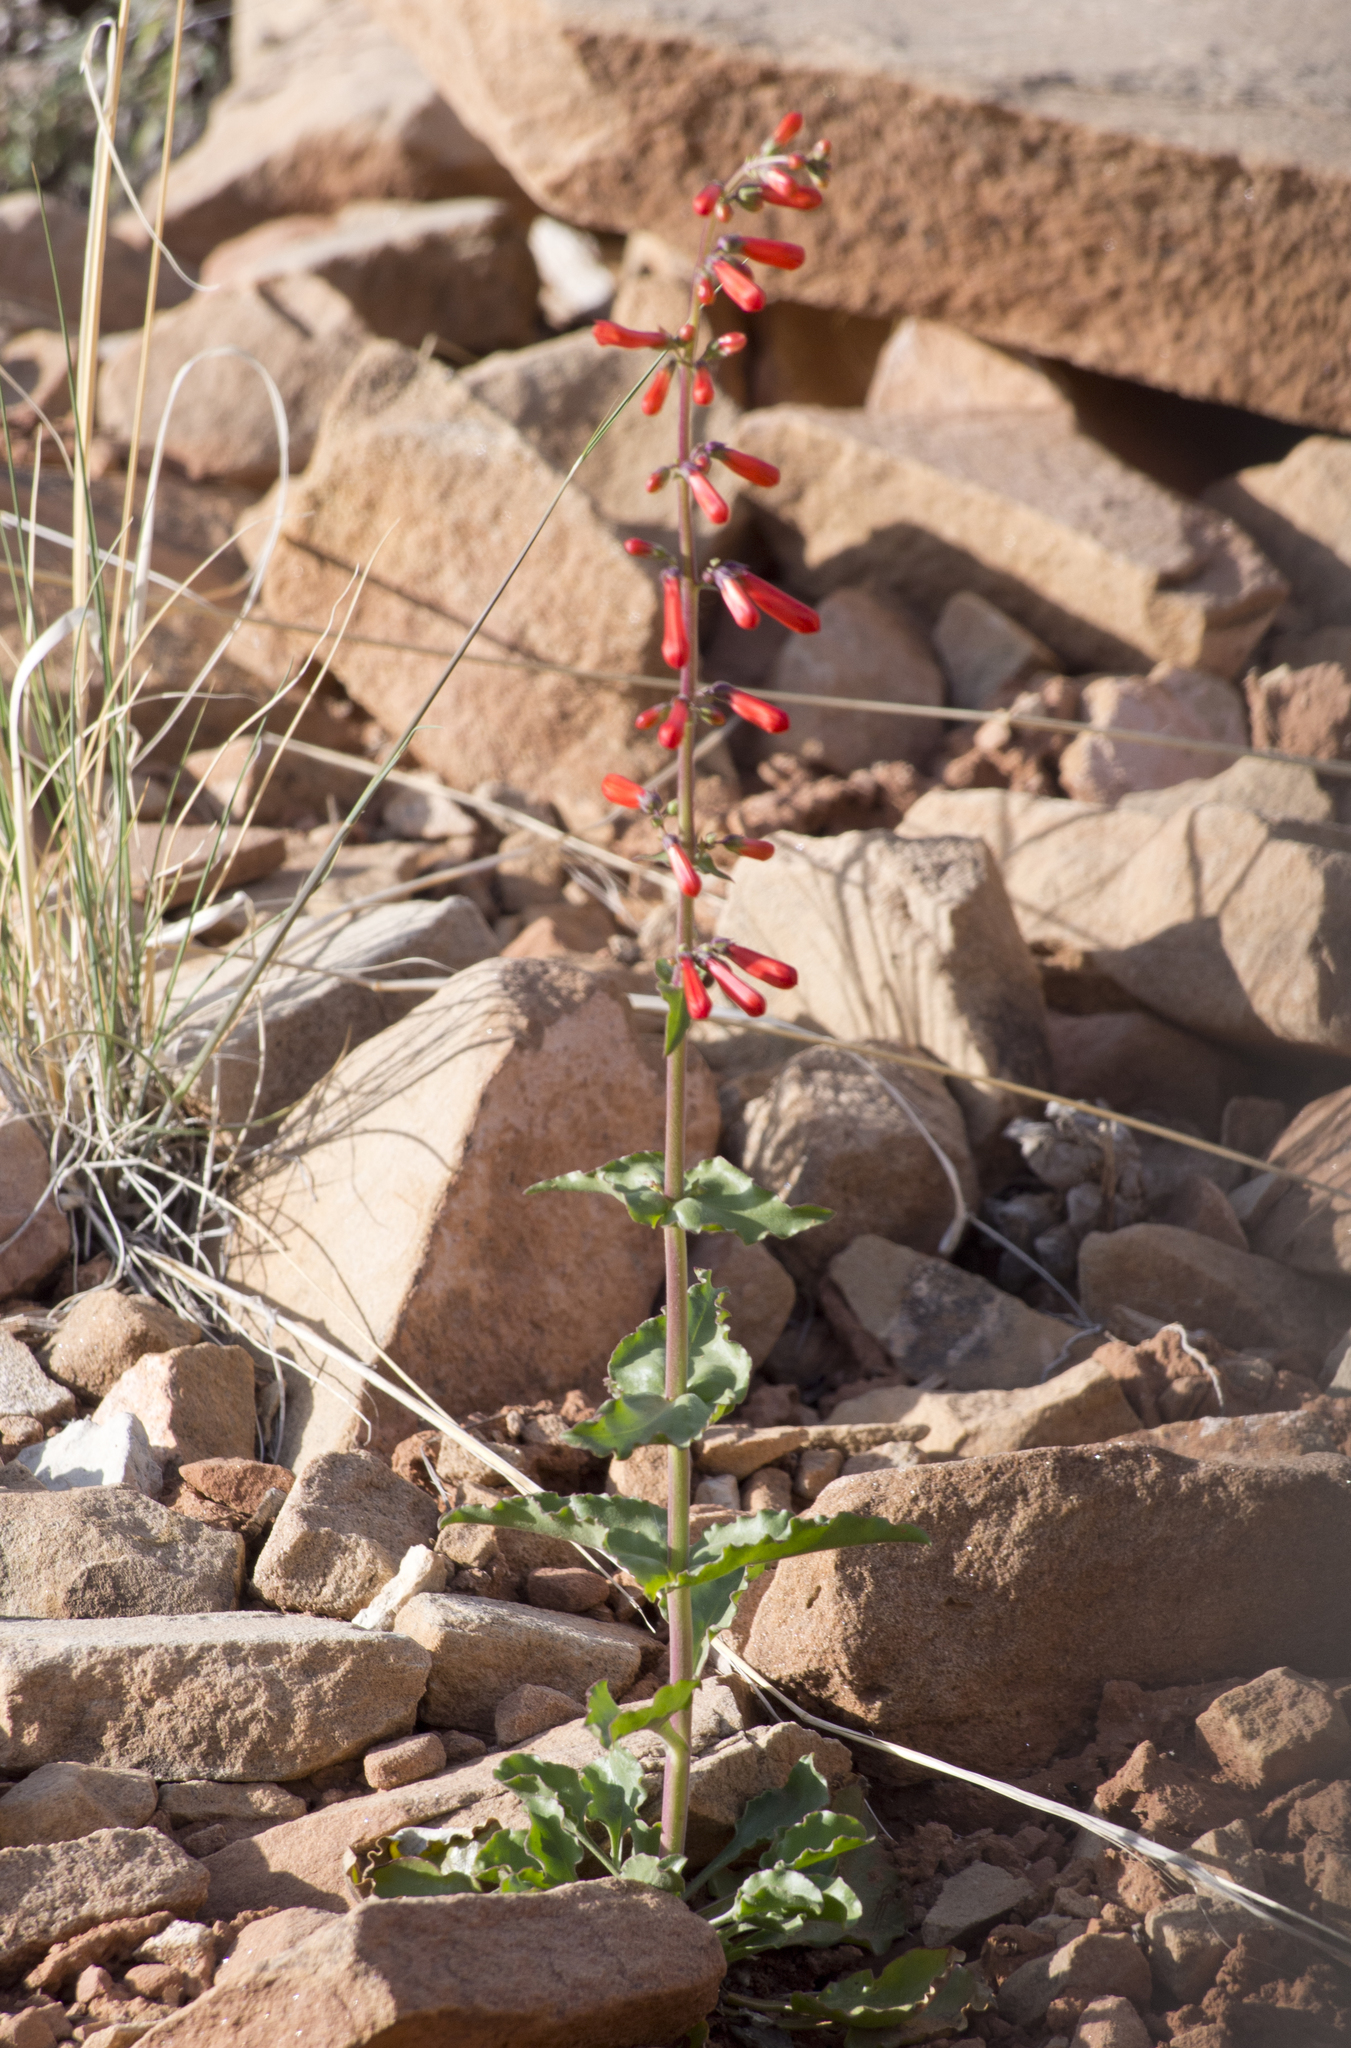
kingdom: Plantae
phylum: Tracheophyta
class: Magnoliopsida
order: Lamiales
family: Plantaginaceae
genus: Penstemon
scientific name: Penstemon eatonii
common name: Eaton's penstemon
